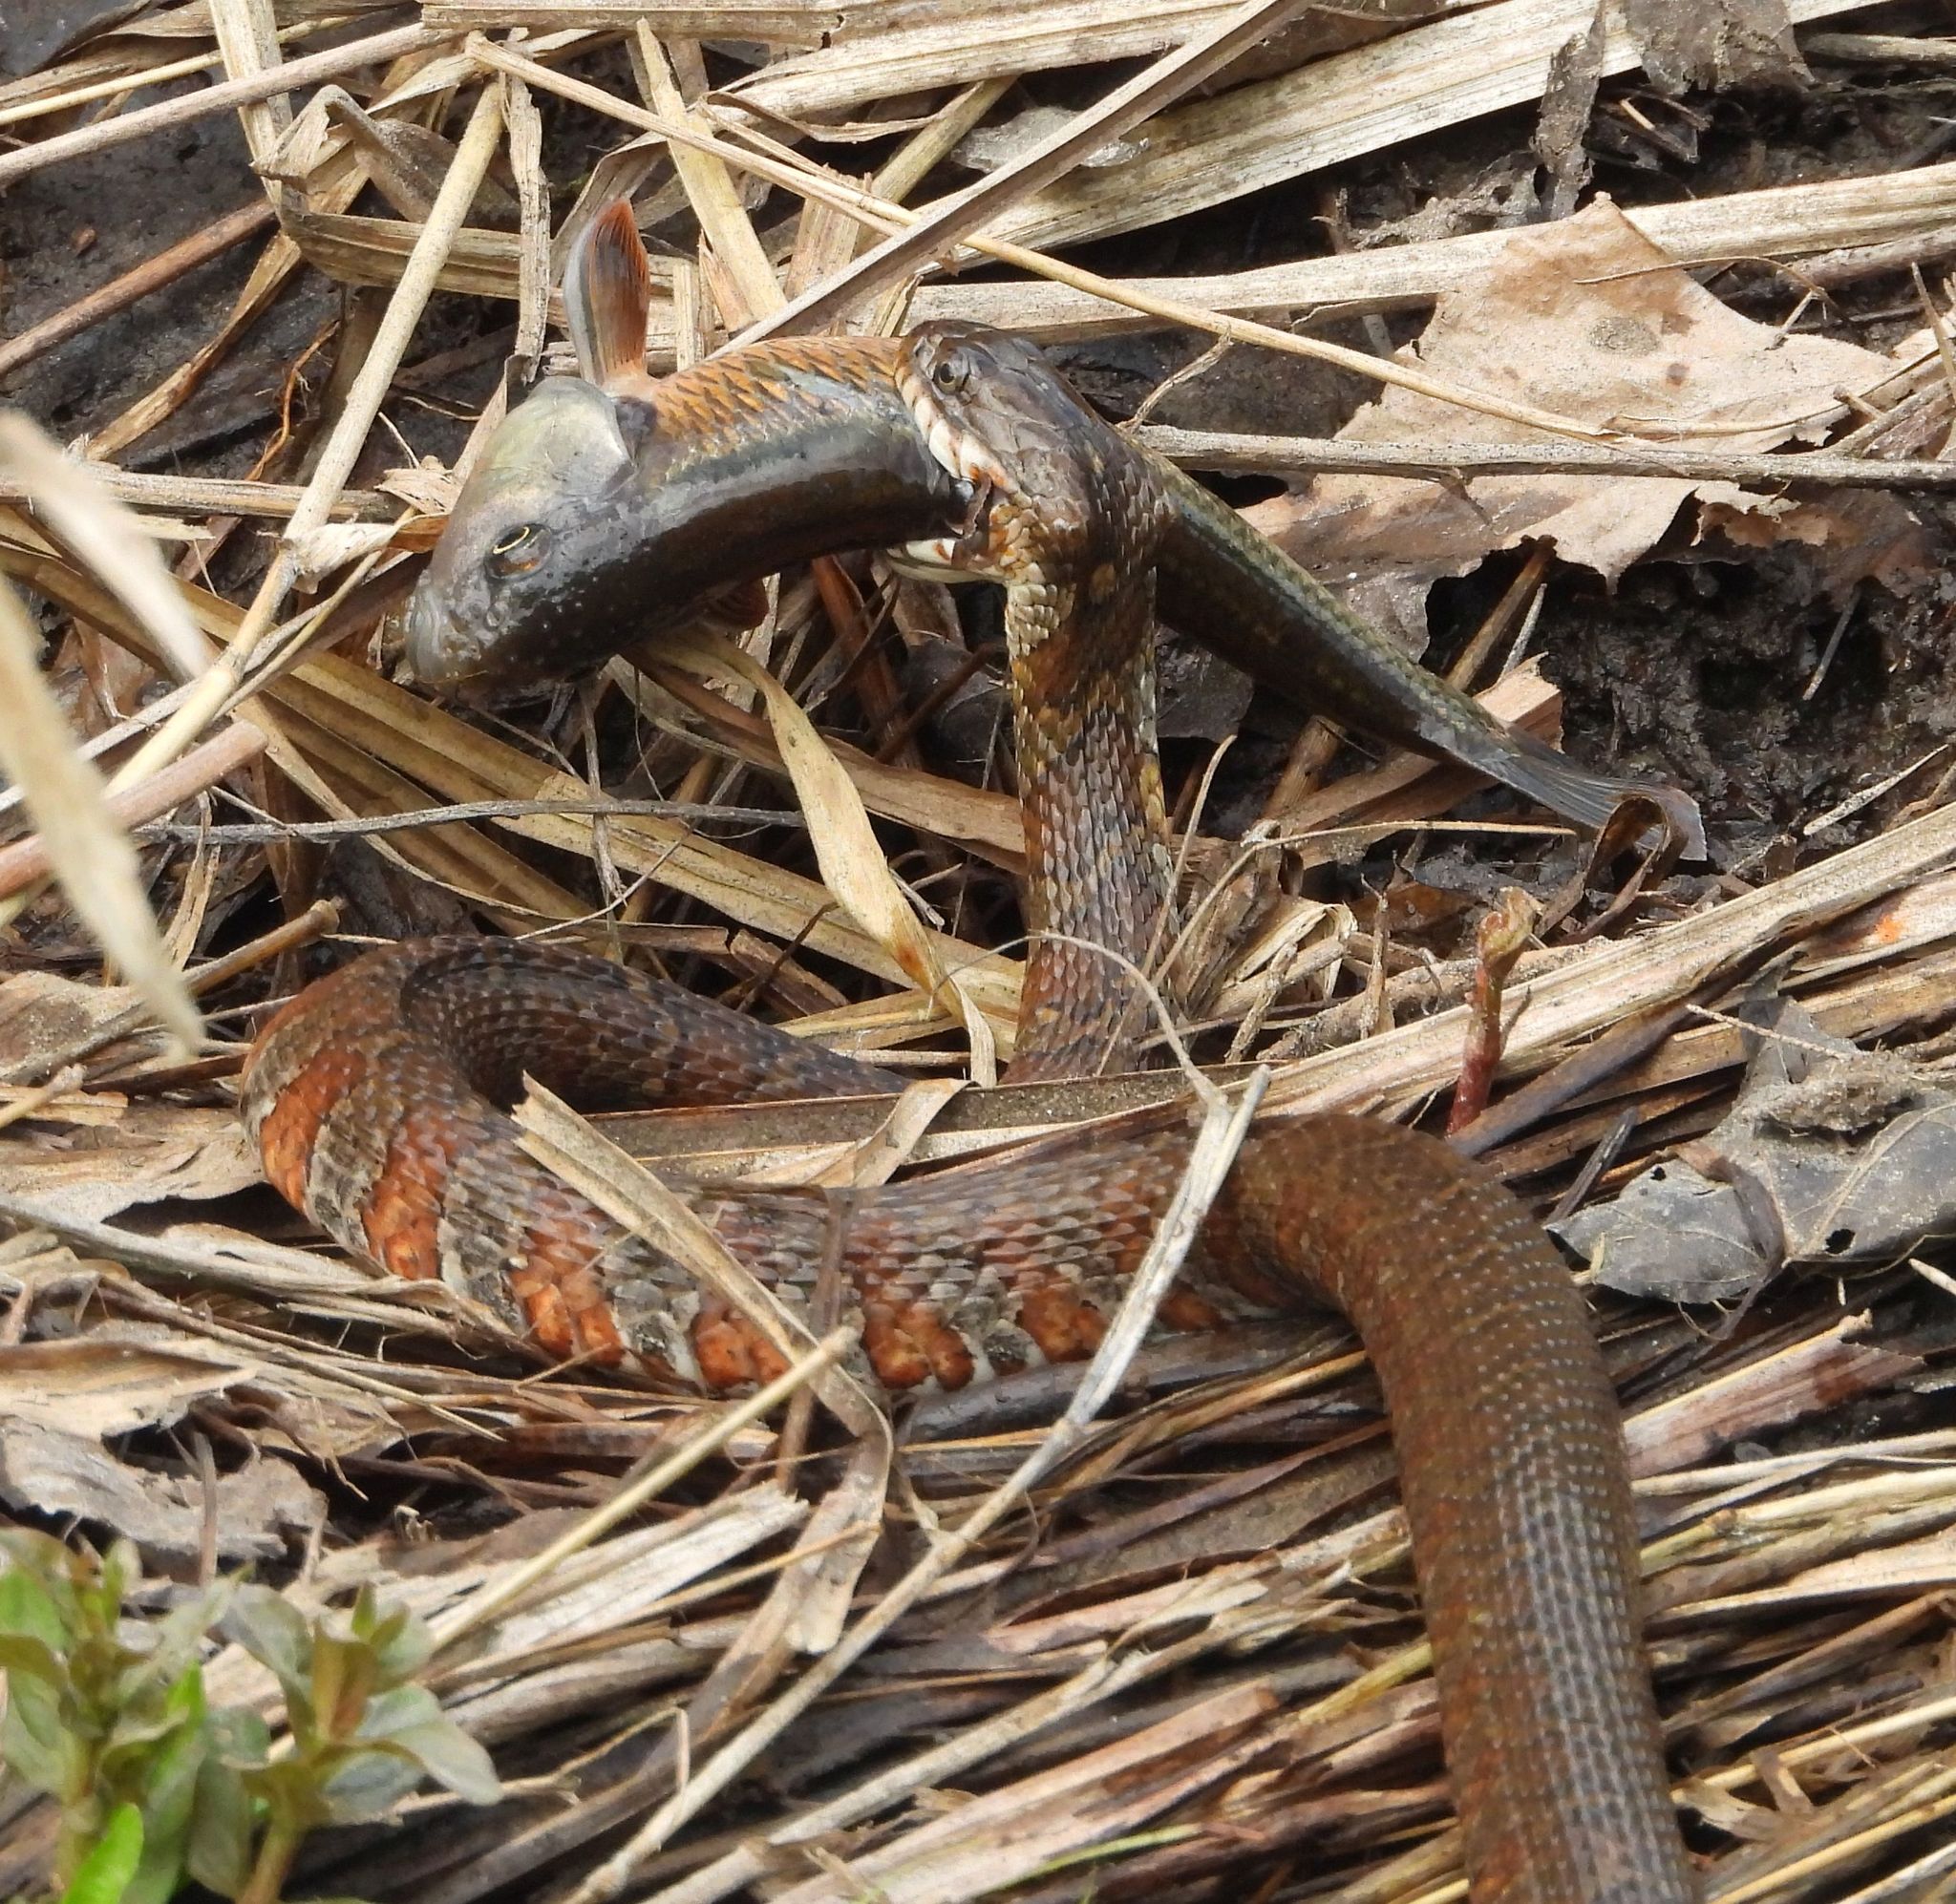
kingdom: Animalia
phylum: Chordata
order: Cypriniformes
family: Cyprinidae
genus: Luxilus
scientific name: Luxilus cornutus
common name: Common shiner
